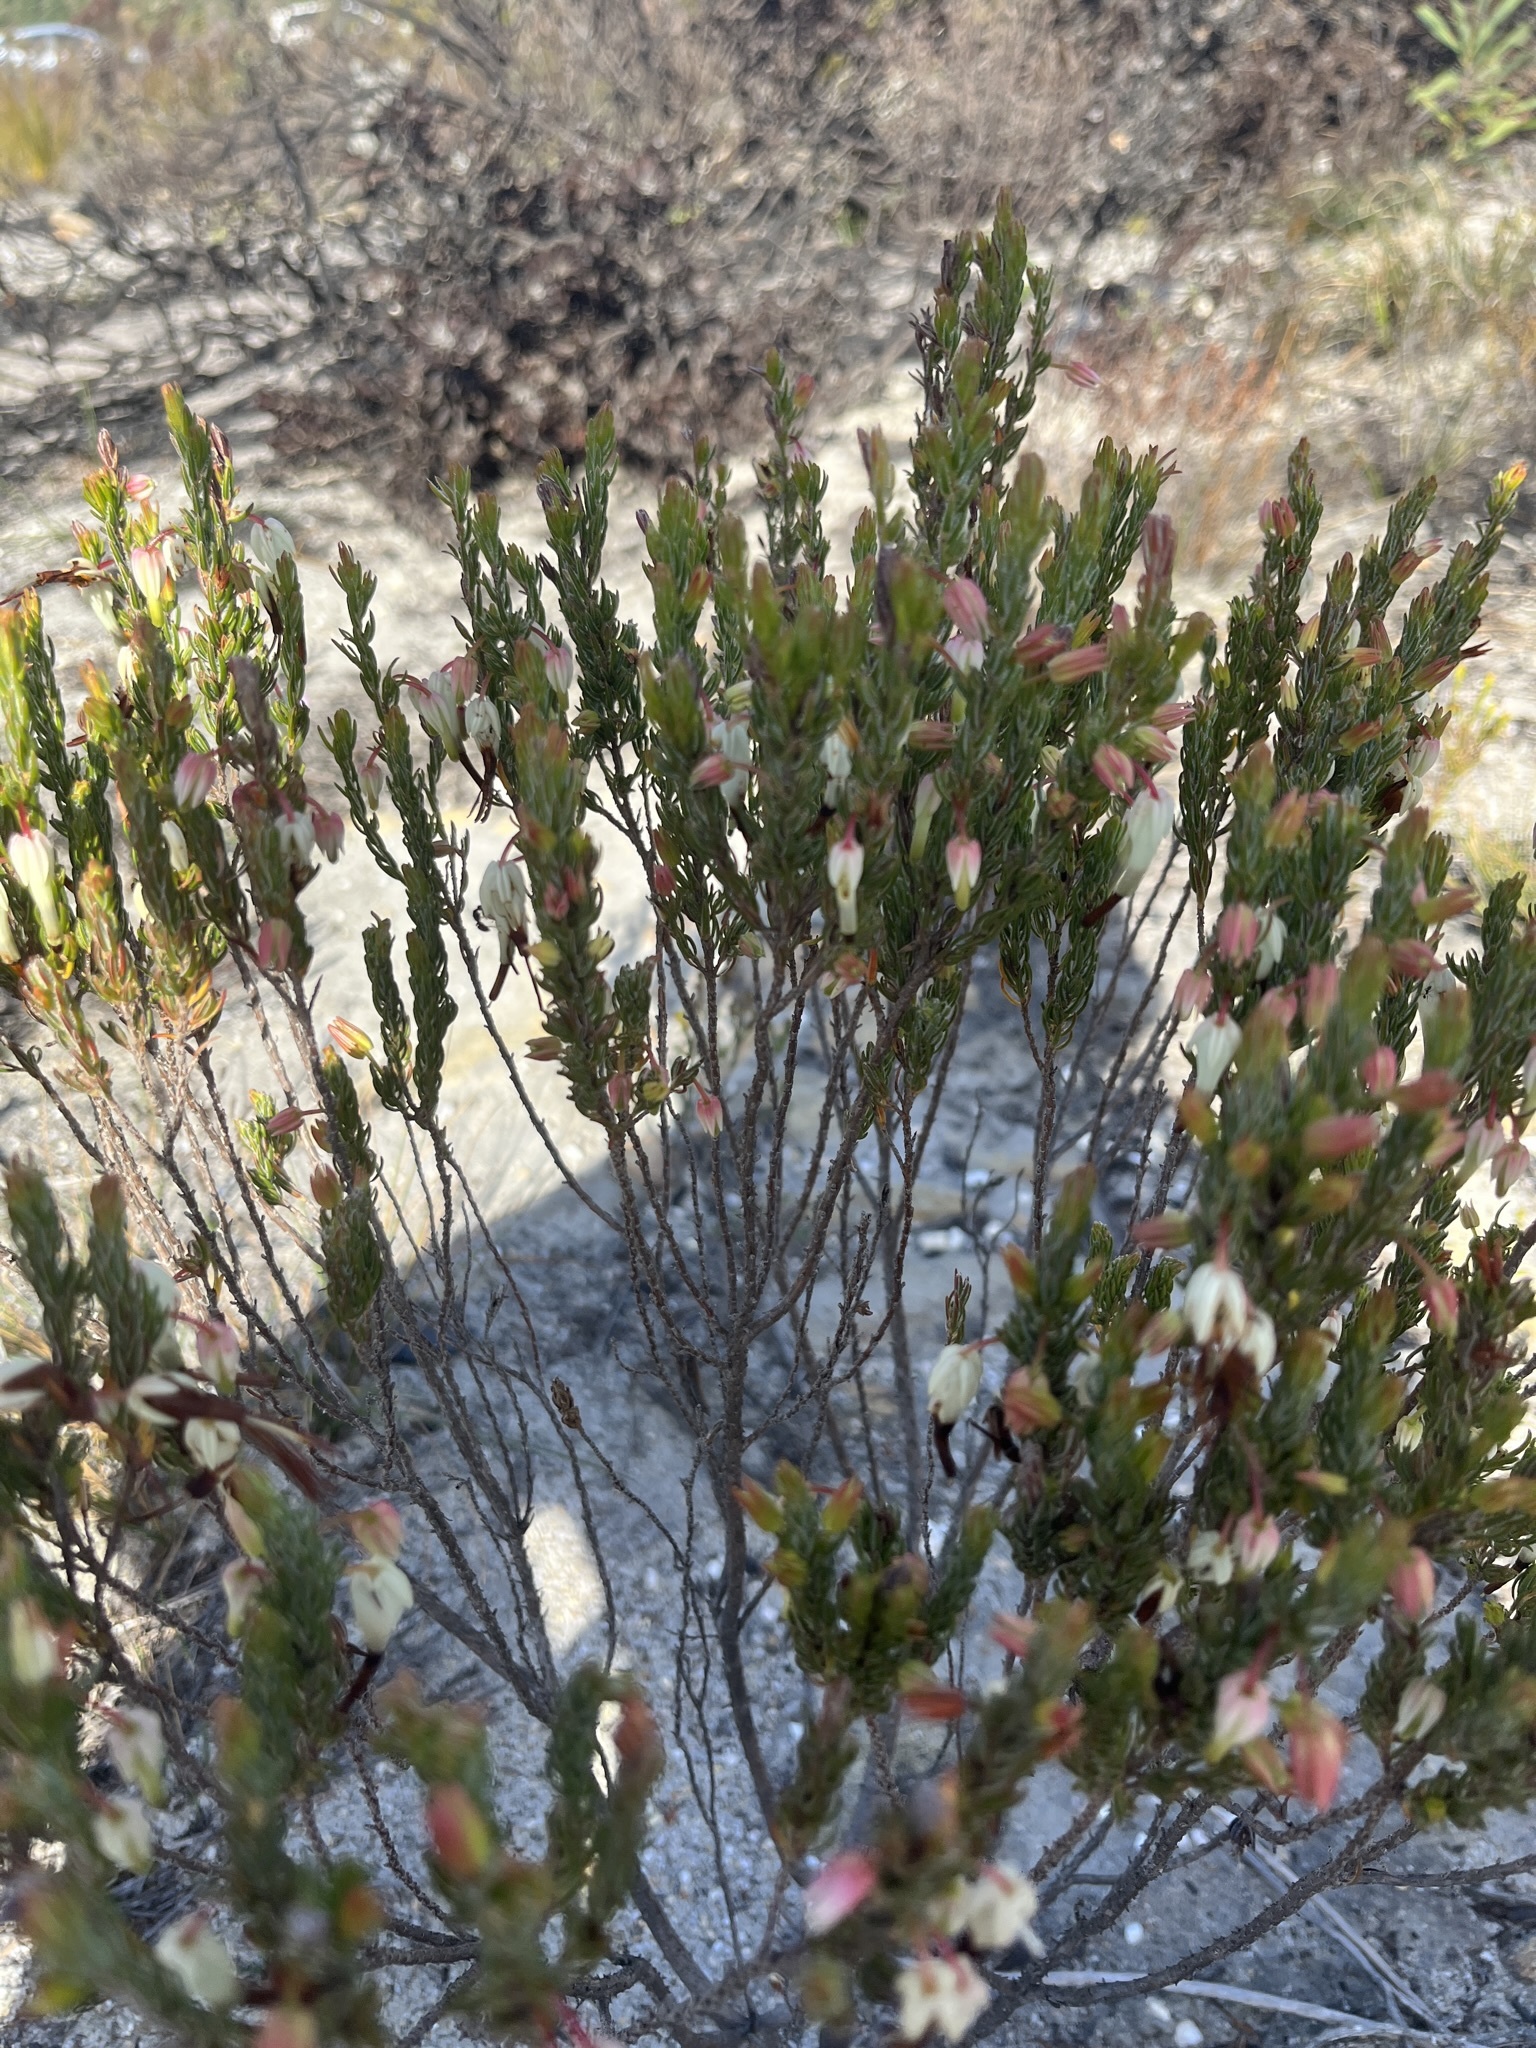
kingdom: Plantae
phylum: Tracheophyta
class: Magnoliopsida
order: Ericales
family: Ericaceae
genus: Erica
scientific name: Erica plukenetii
